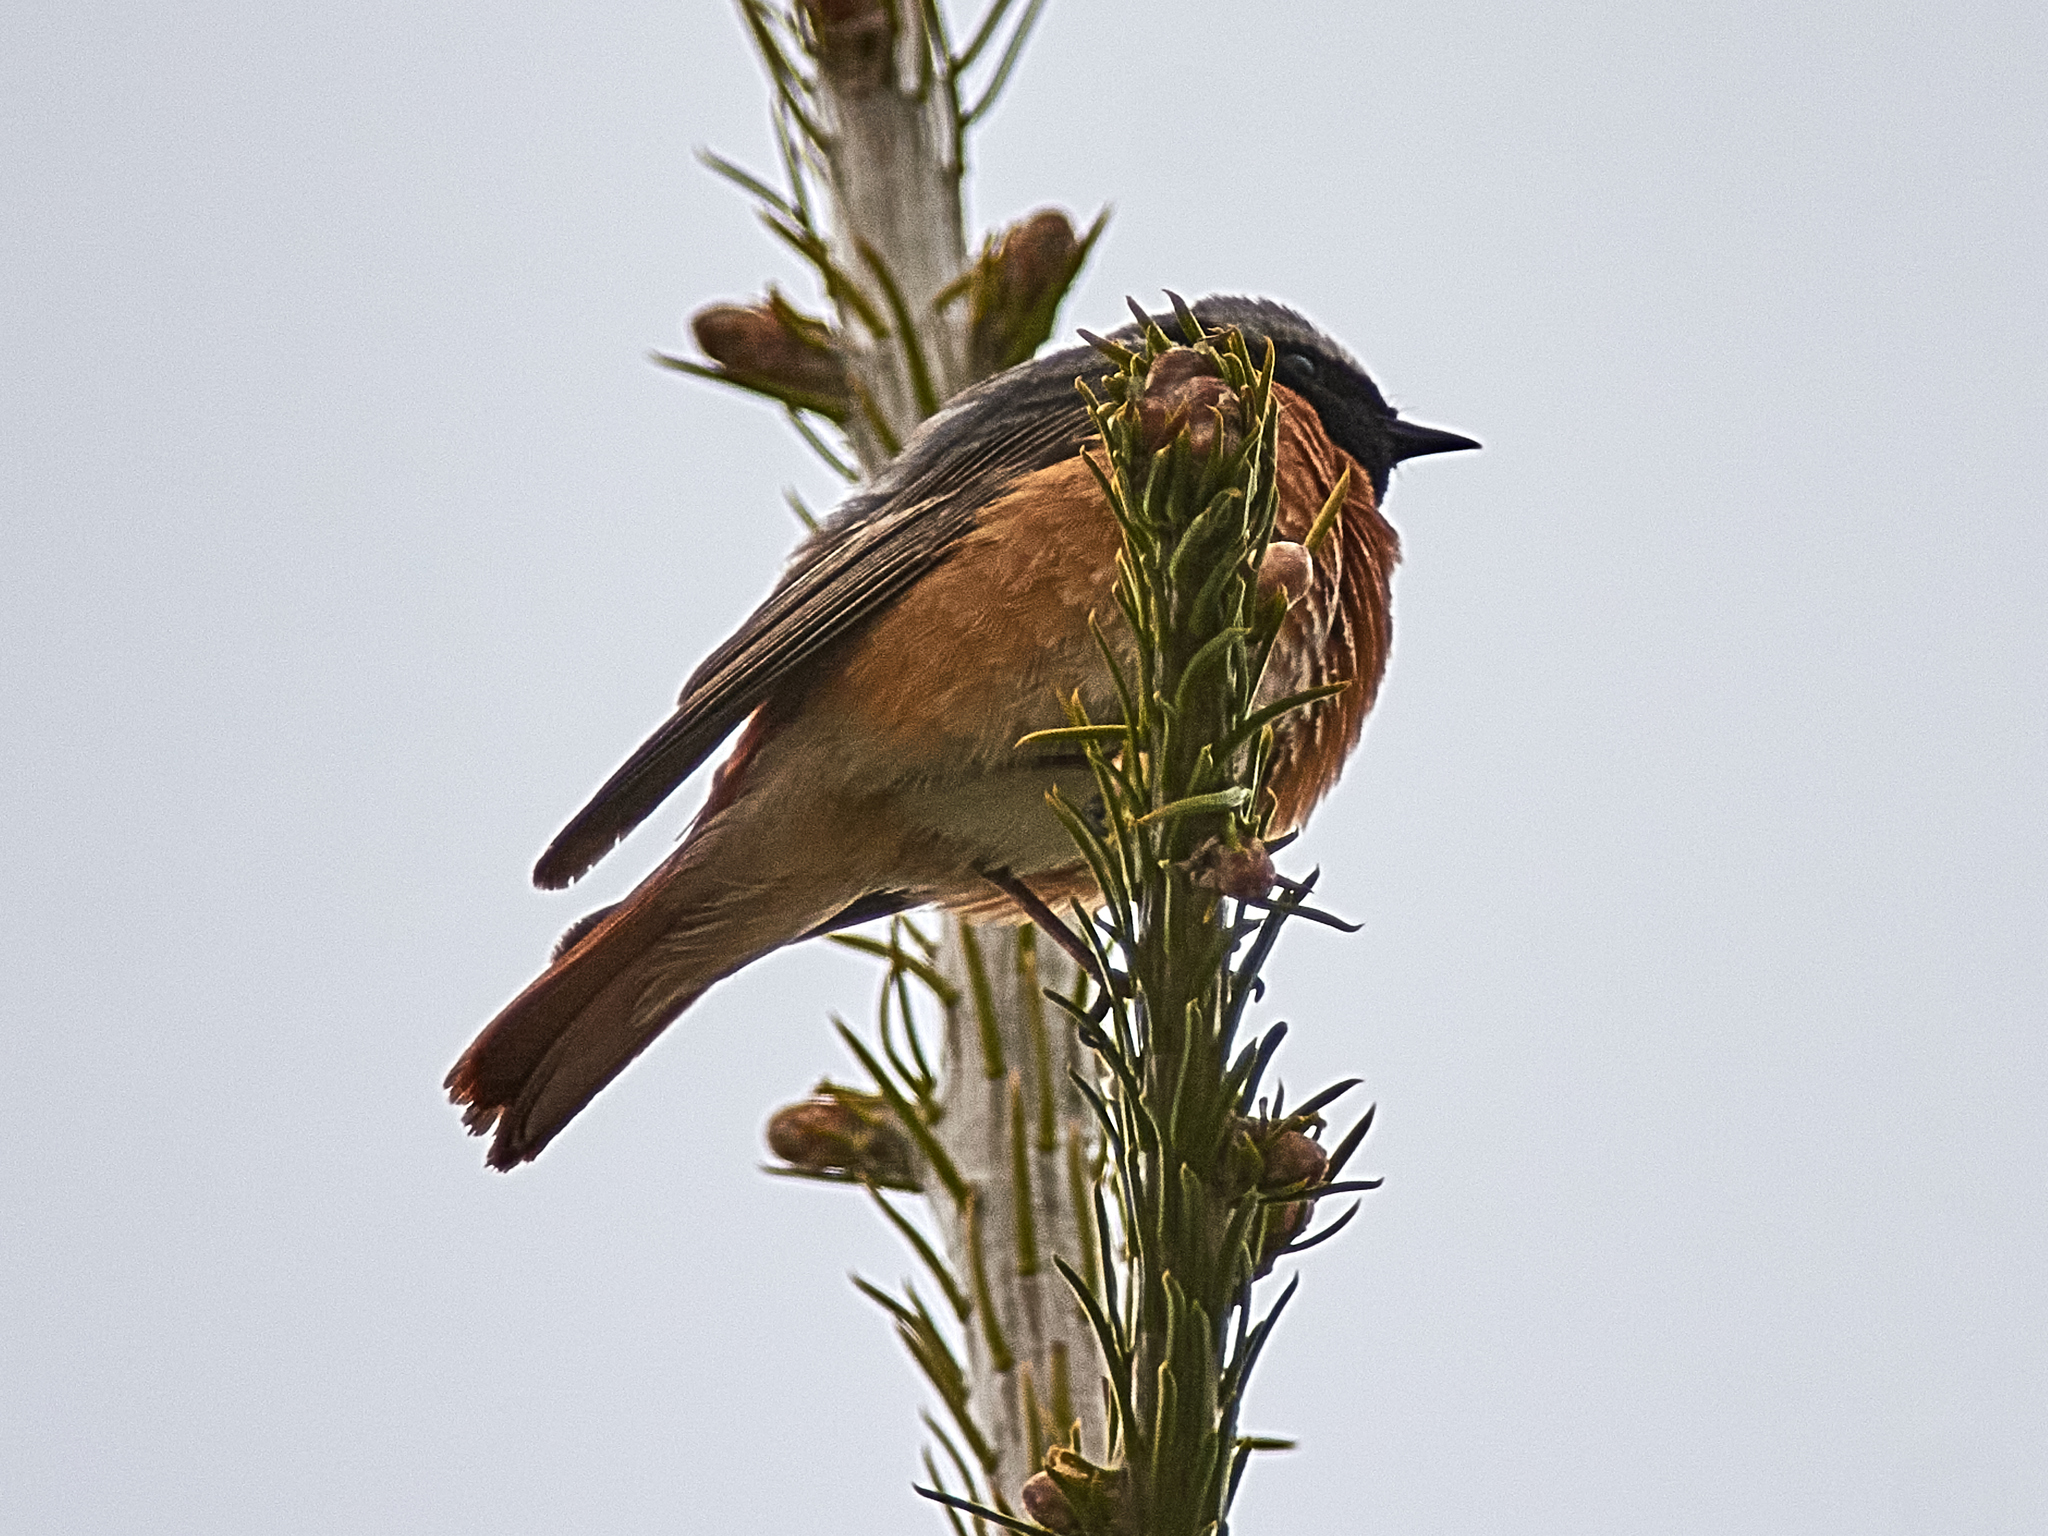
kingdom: Animalia
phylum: Chordata
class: Aves
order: Passeriformes
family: Muscicapidae
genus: Phoenicurus
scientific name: Phoenicurus phoenicurus
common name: Common redstart
